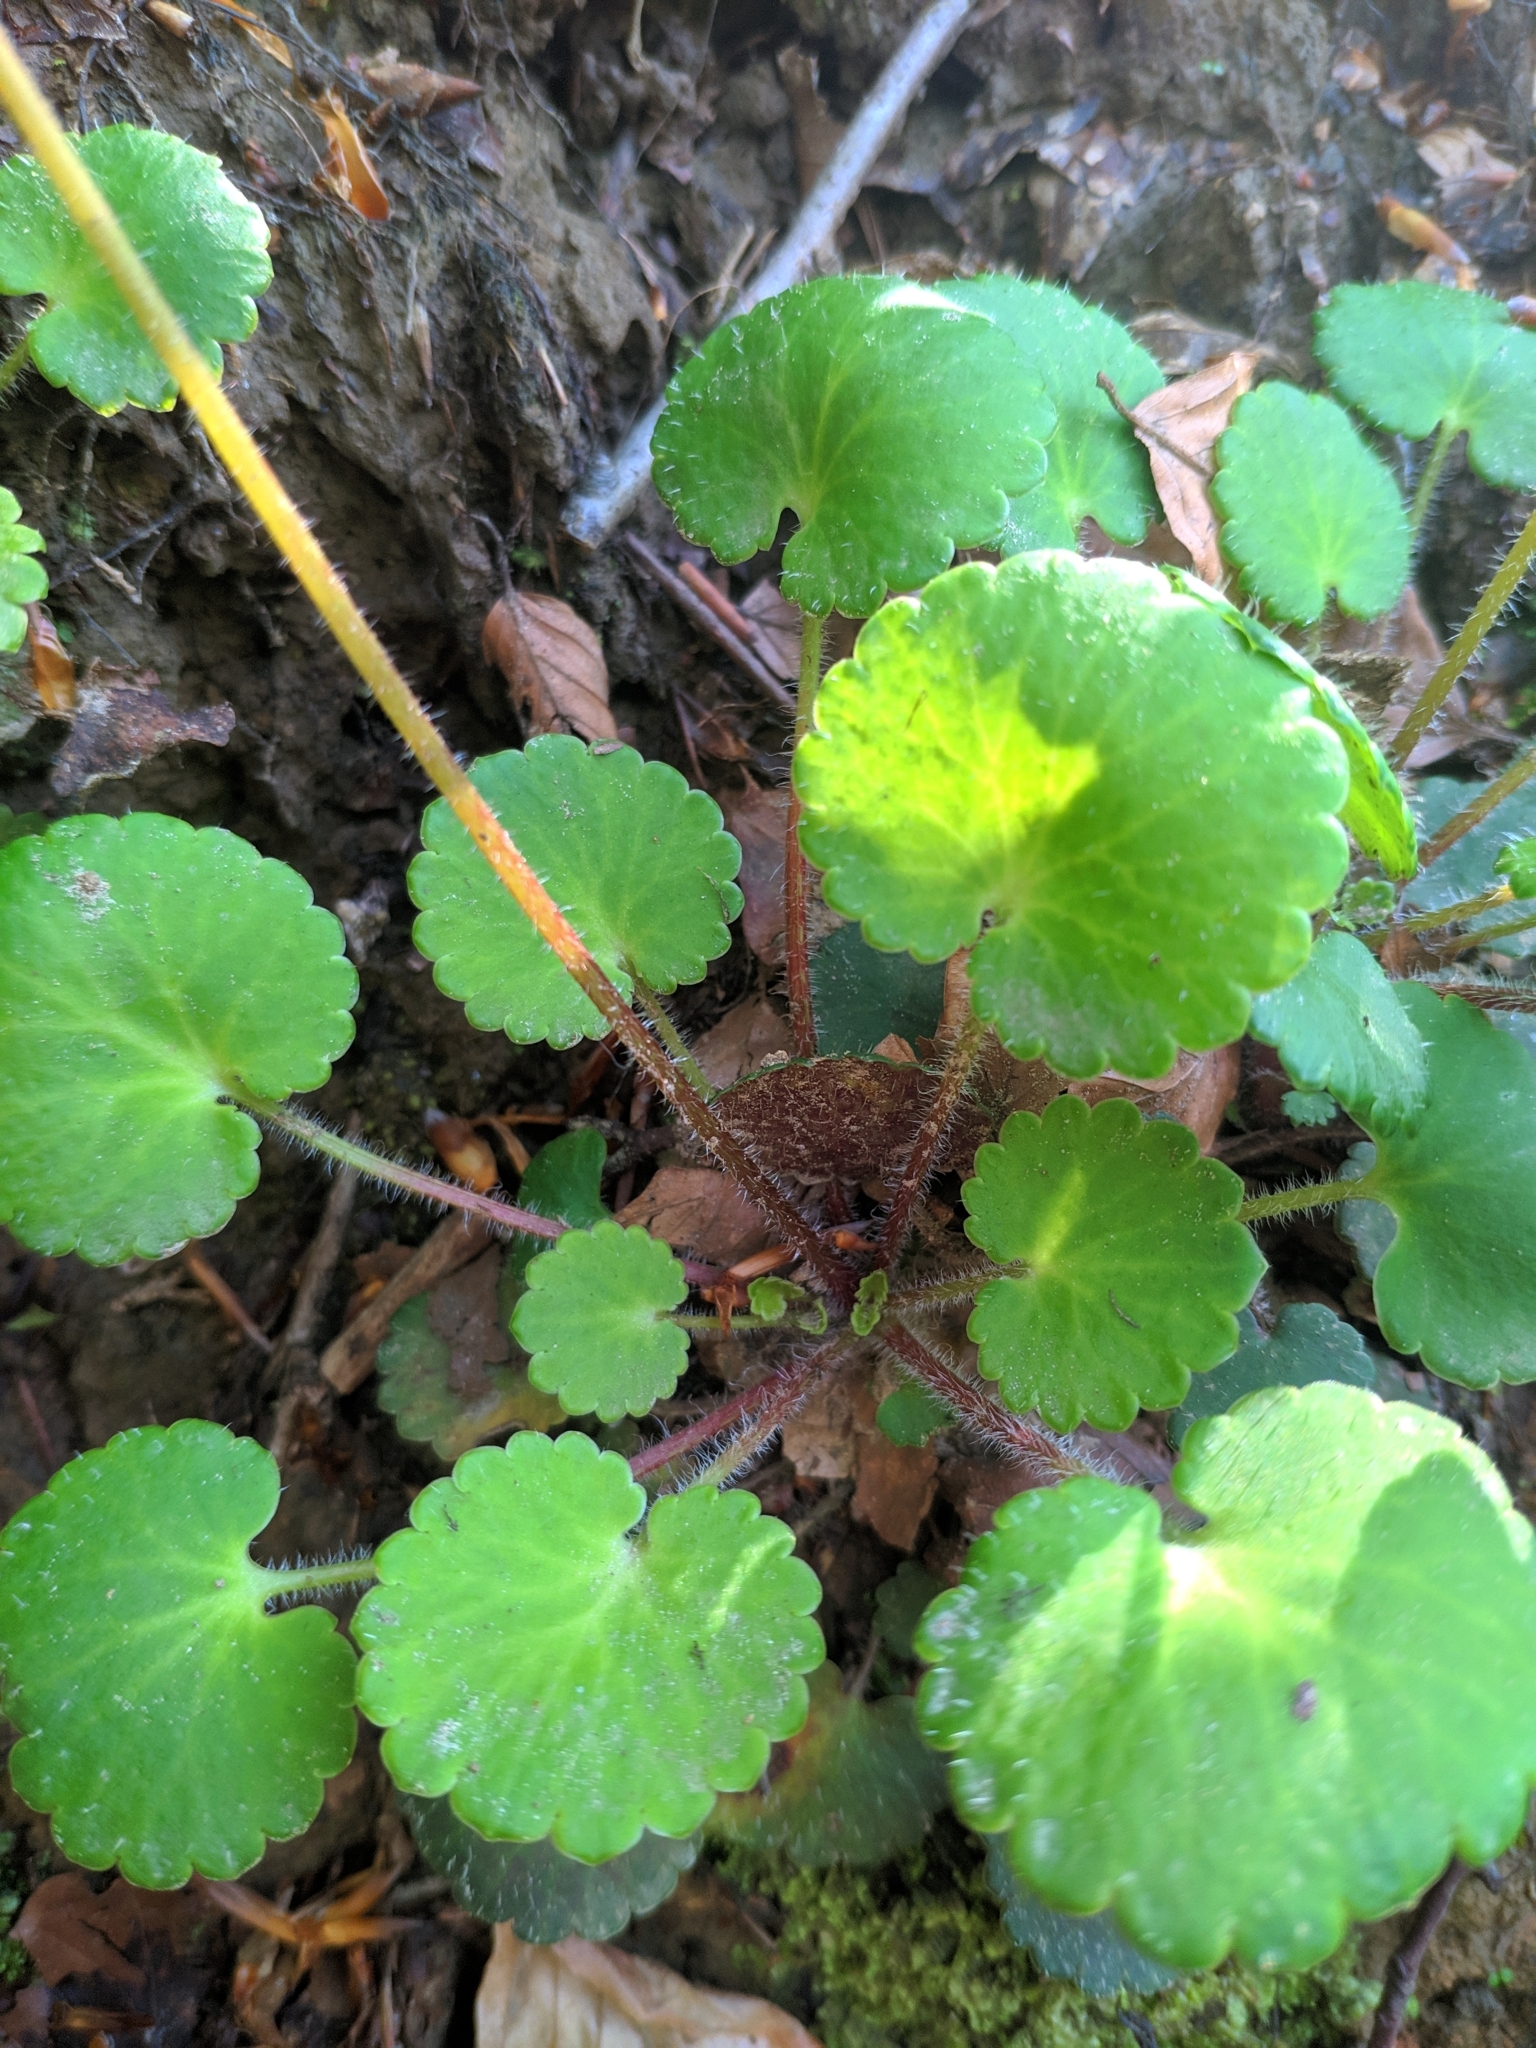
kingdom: Plantae
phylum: Tracheophyta
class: Magnoliopsida
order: Saxifragales
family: Saxifragaceae
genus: Saxifraga
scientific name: Saxifraga hirsuta
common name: Kidney saxifrage
